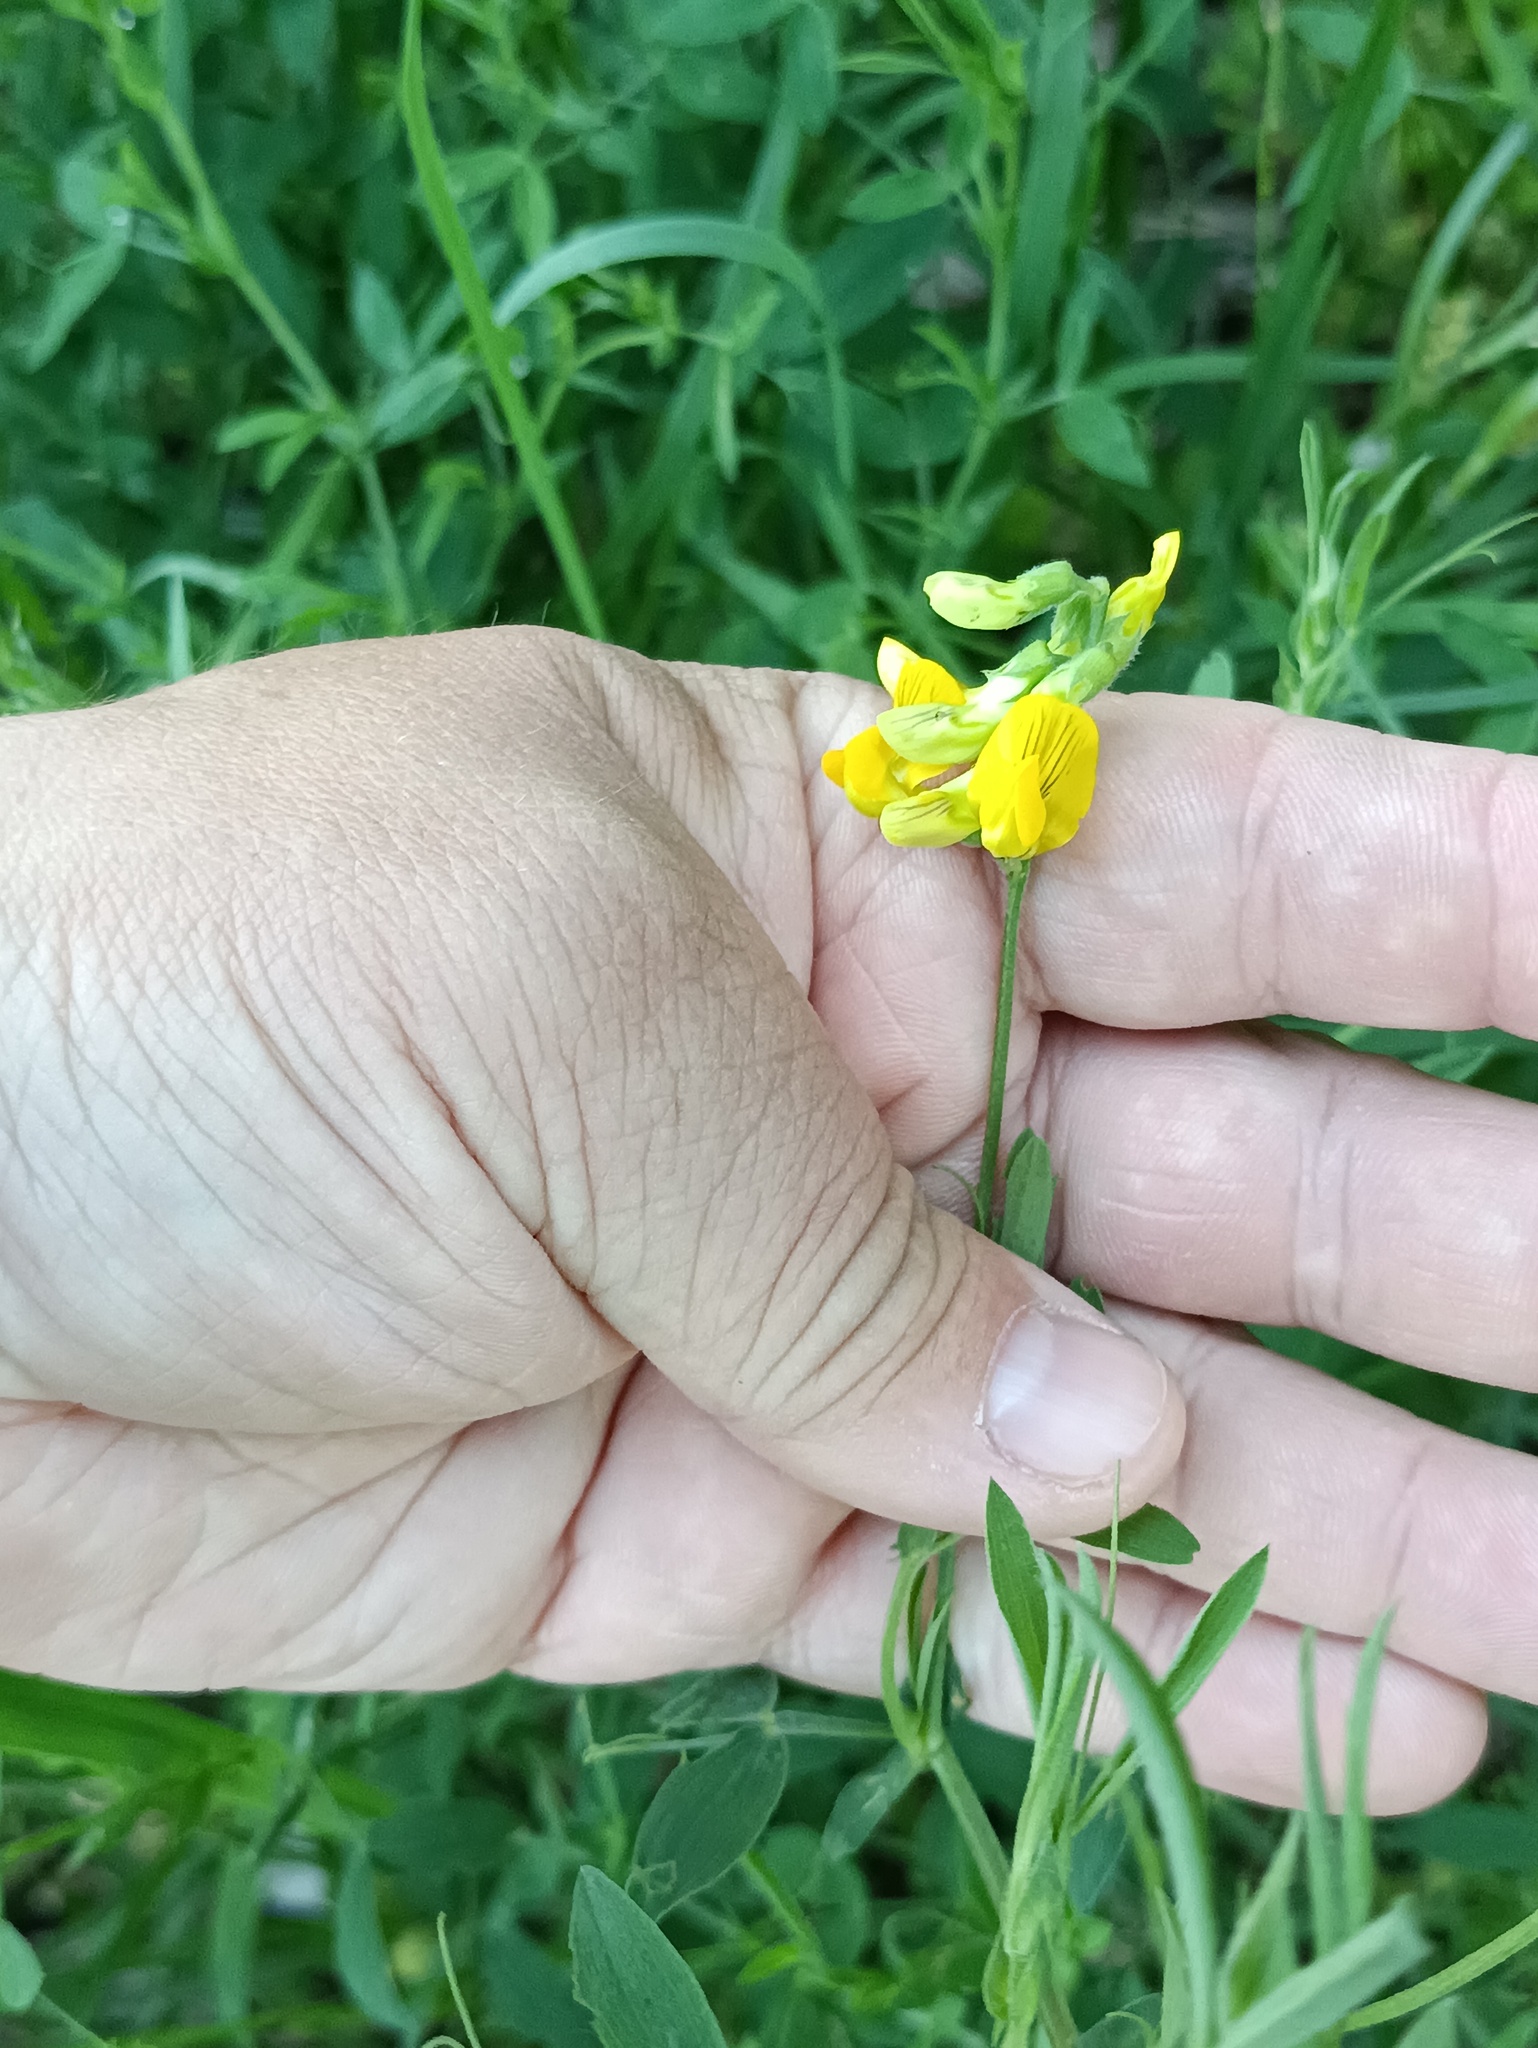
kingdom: Plantae
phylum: Tracheophyta
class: Magnoliopsida
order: Fabales
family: Fabaceae
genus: Lathyrus
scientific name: Lathyrus pratensis
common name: Meadow vetchling
